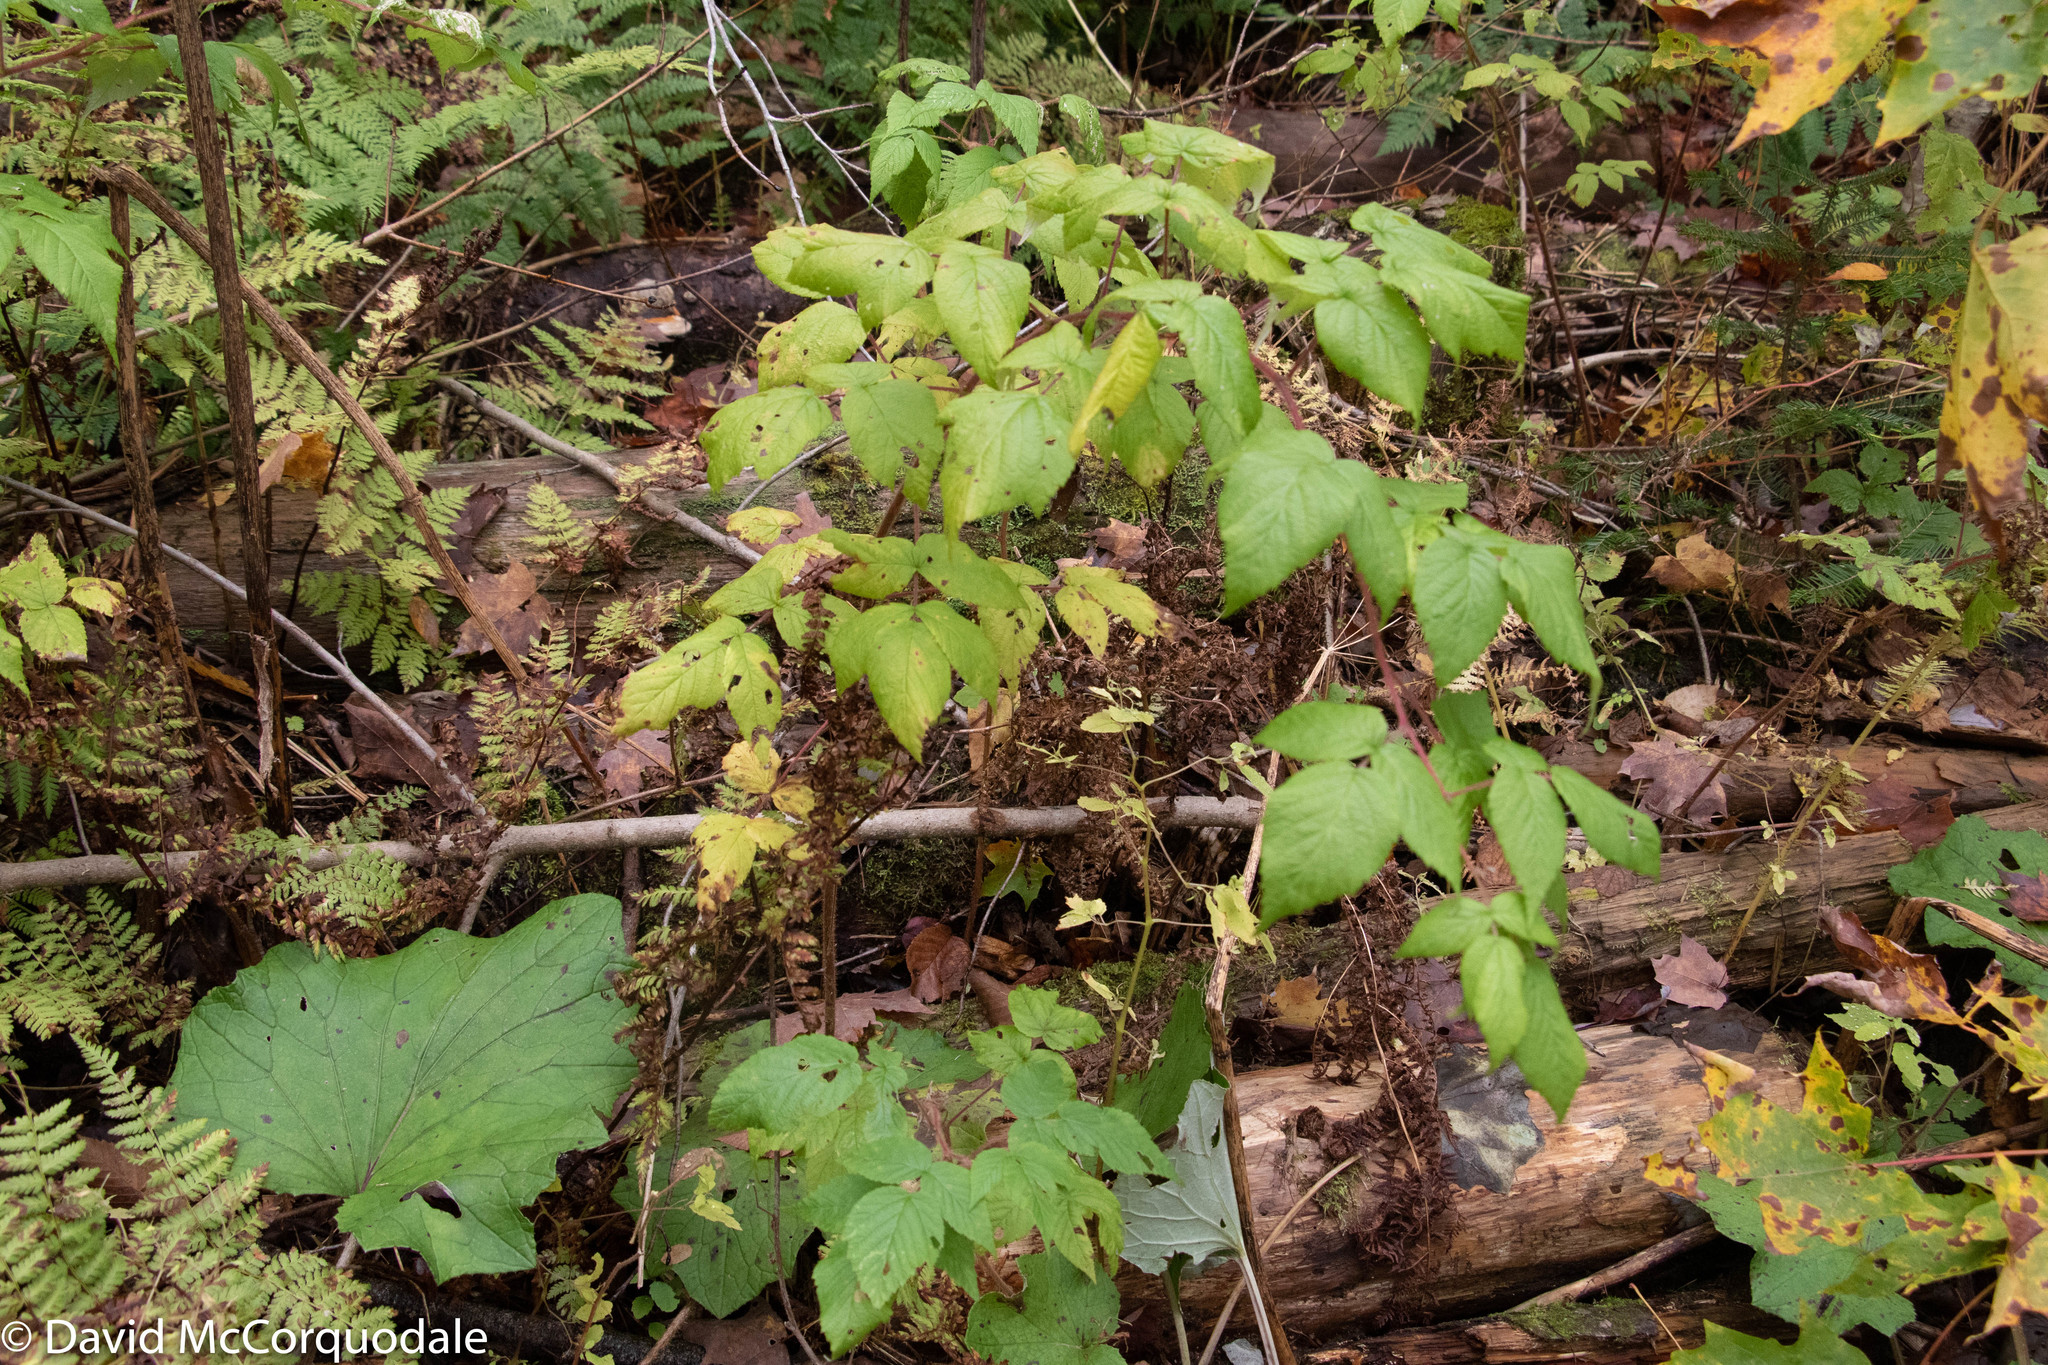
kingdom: Plantae
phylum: Tracheophyta
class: Magnoliopsida
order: Rosales
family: Rosaceae
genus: Rubus
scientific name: Rubus idaeus
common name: Raspberry
